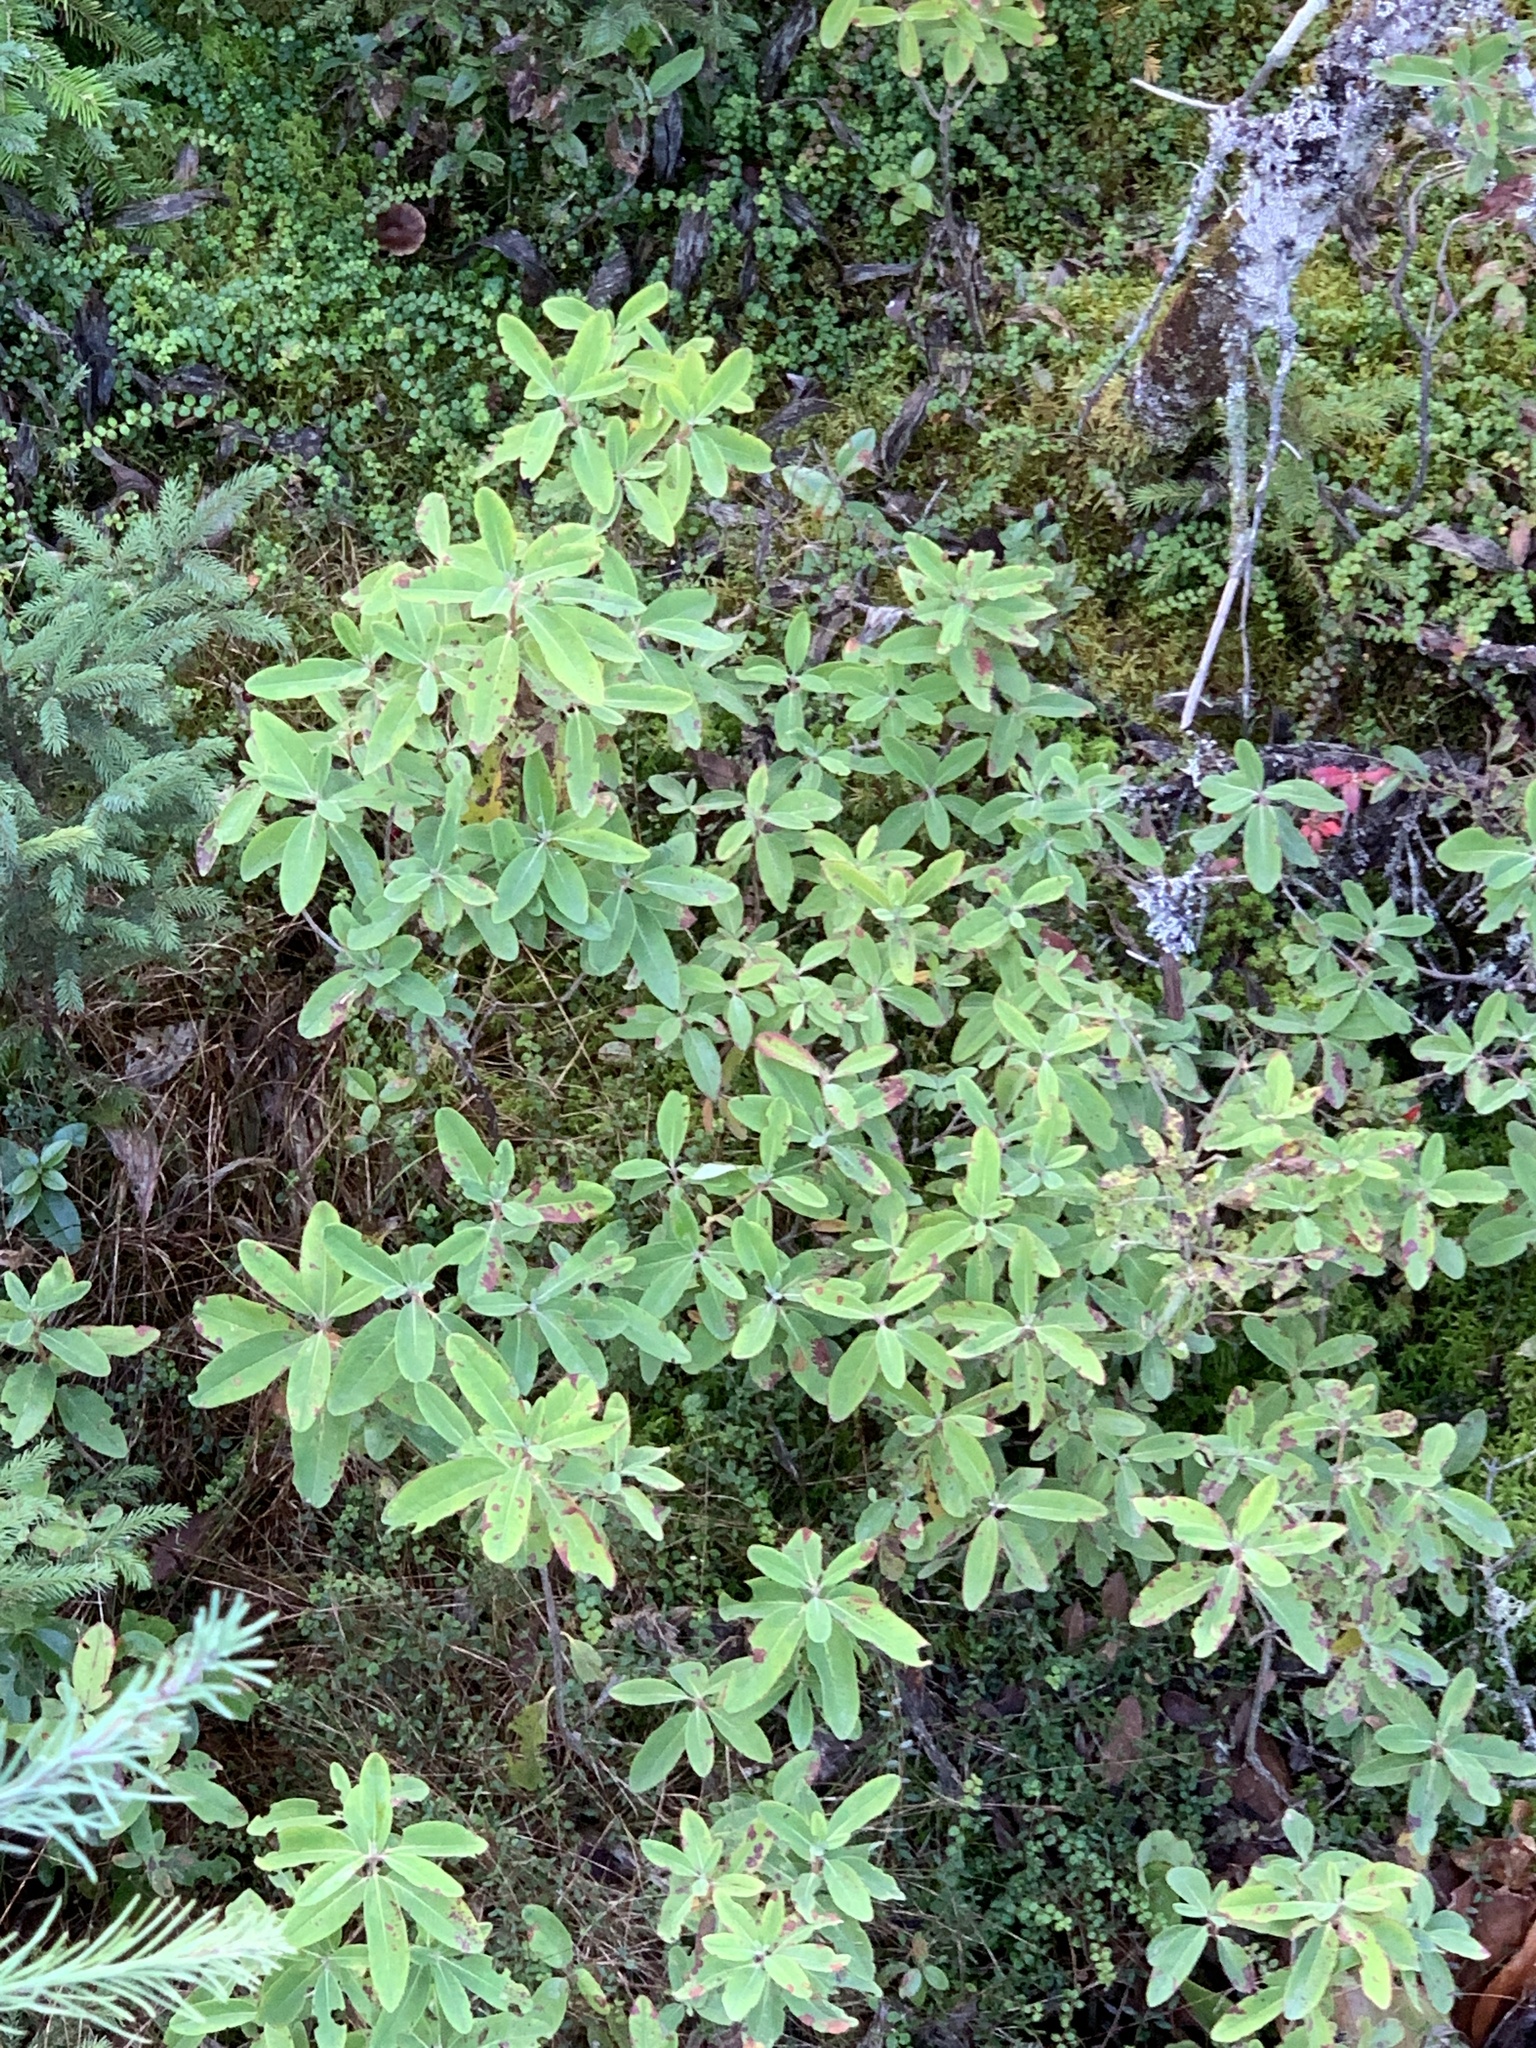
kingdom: Plantae
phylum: Tracheophyta
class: Magnoliopsida
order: Ericales
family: Ericaceae
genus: Kalmia
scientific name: Kalmia angustifolia
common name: Sheep-laurel
